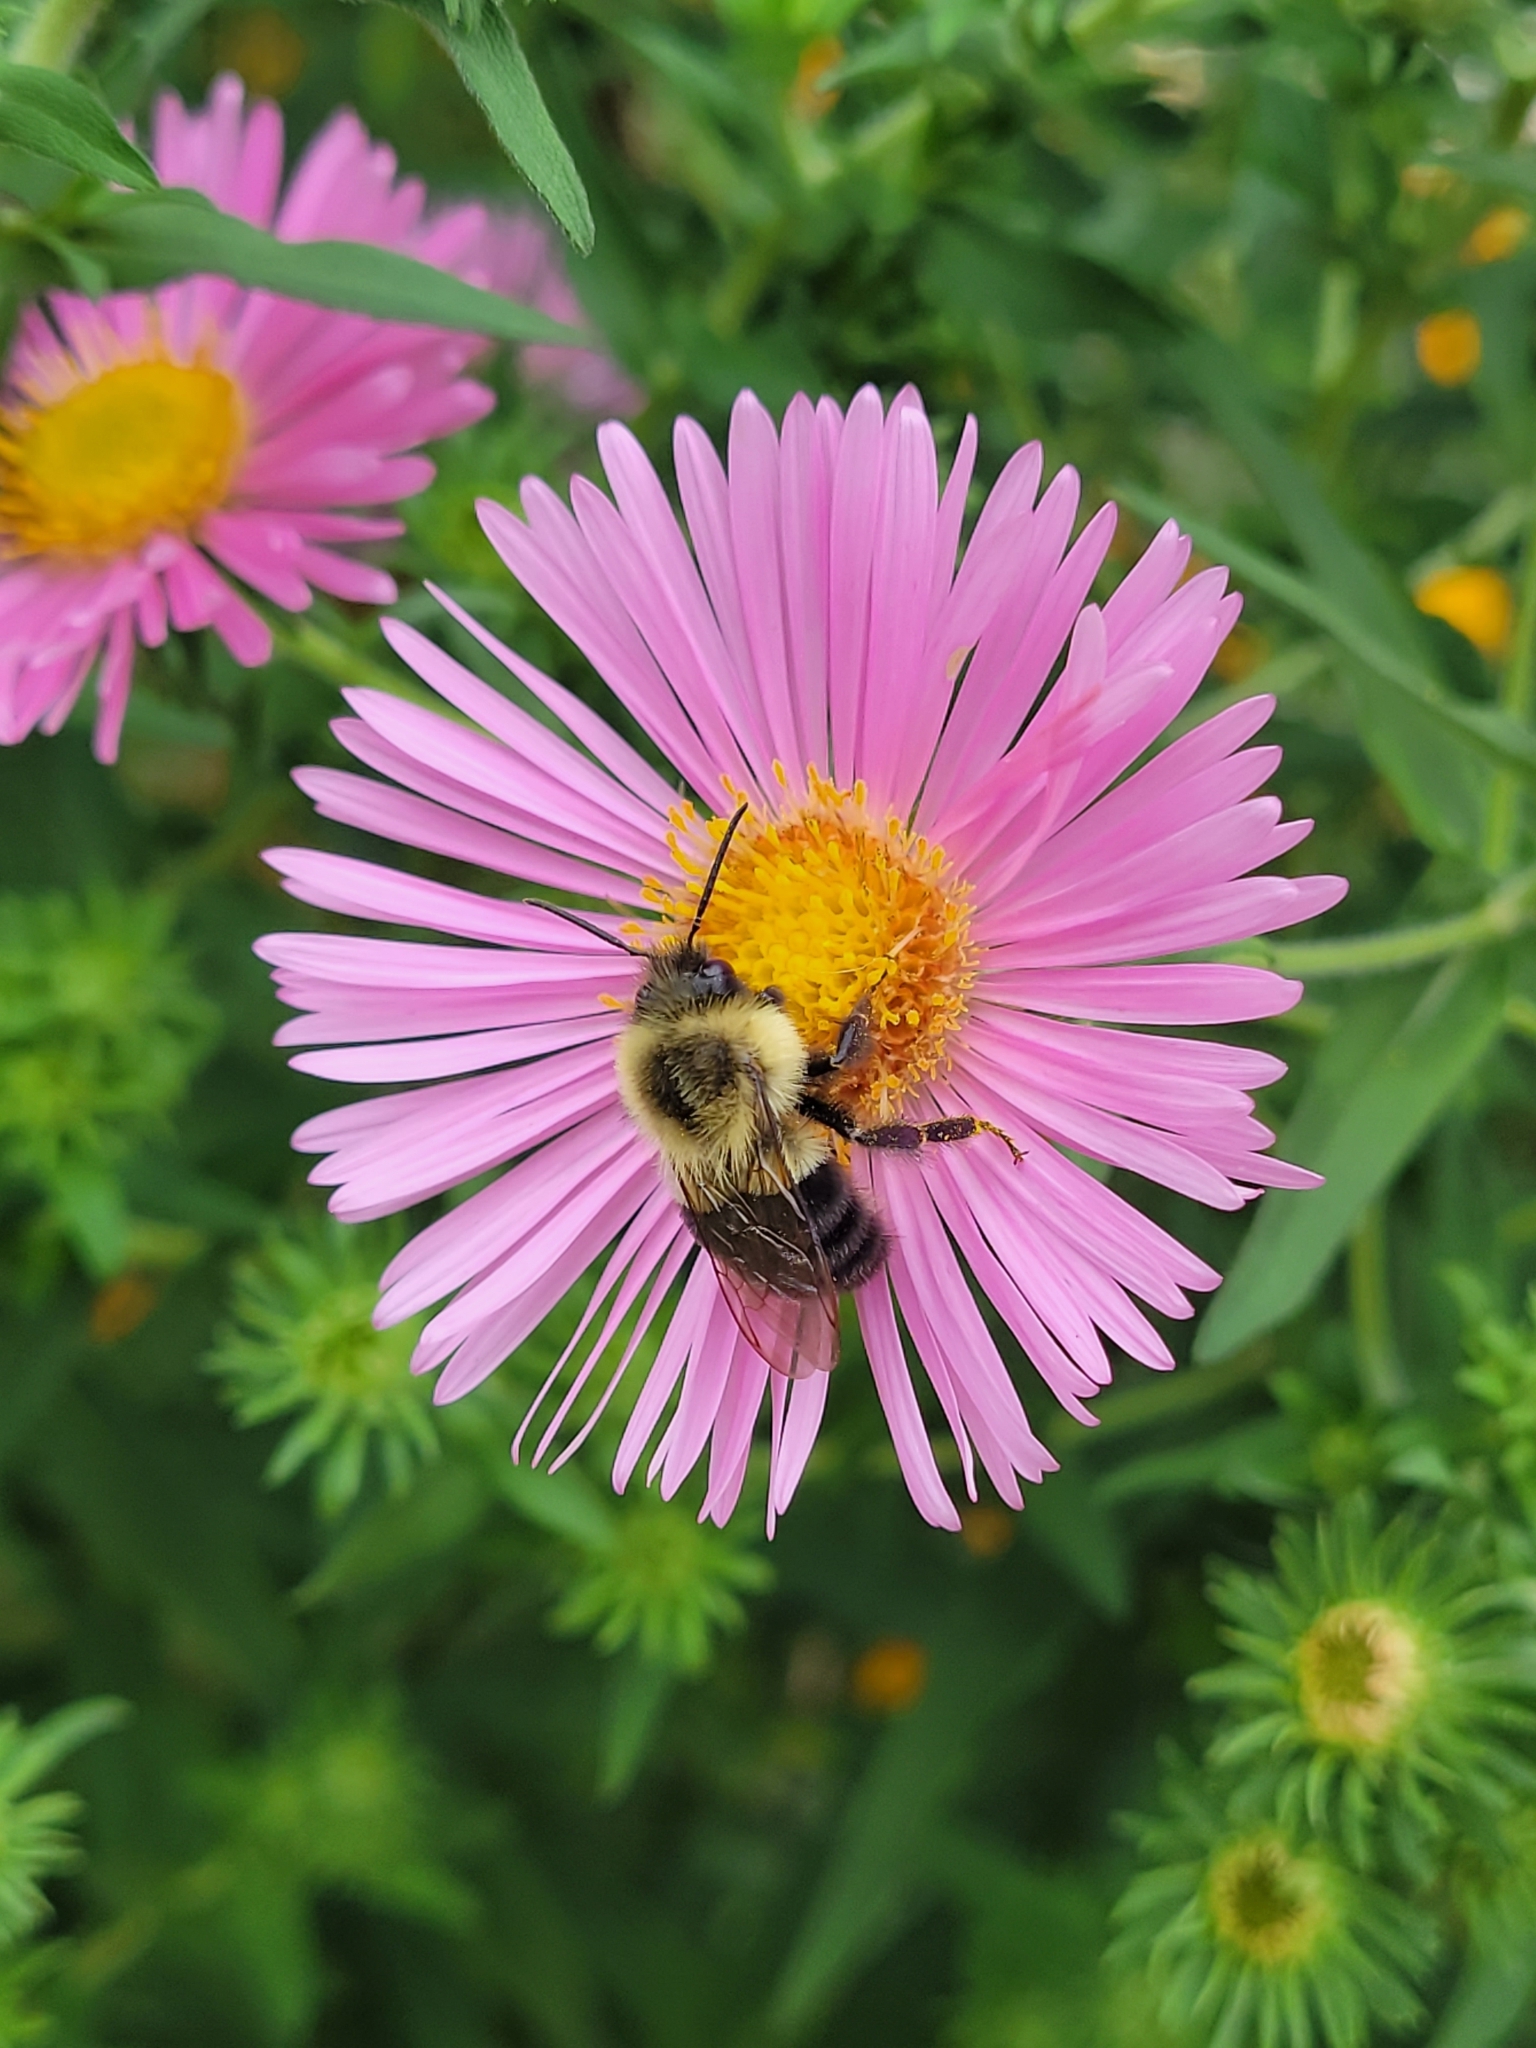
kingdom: Animalia
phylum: Arthropoda
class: Insecta
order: Hymenoptera
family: Apidae
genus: Bombus
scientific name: Bombus impatiens
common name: Common eastern bumble bee
